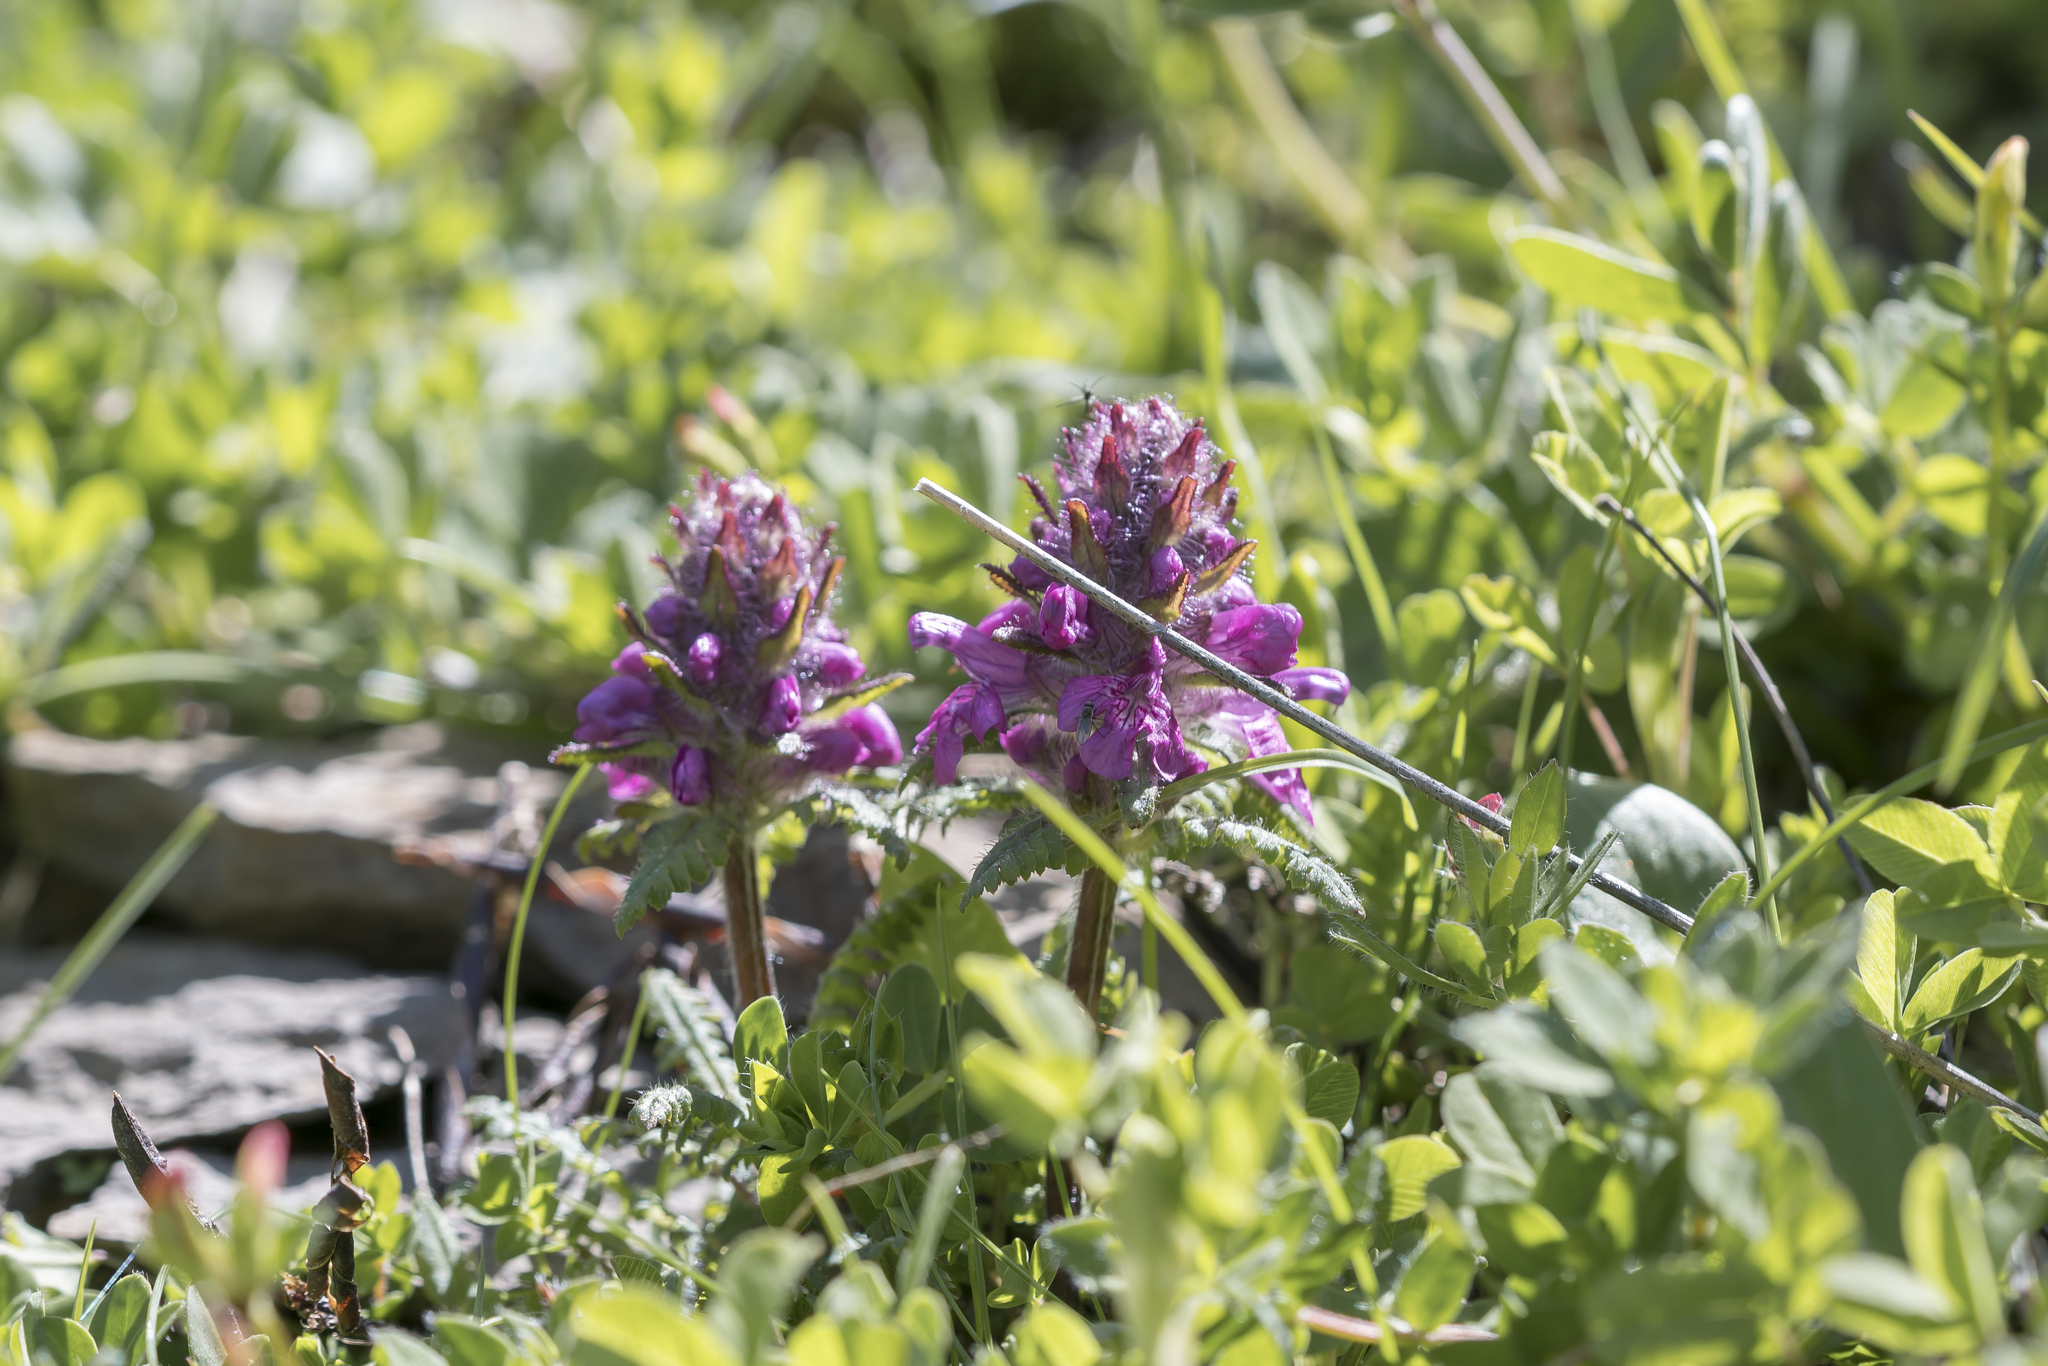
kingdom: Plantae
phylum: Tracheophyta
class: Magnoliopsida
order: Lamiales
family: Orobanchaceae
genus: Pedicularis
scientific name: Pedicularis verticillata
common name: Whorled lousewort
